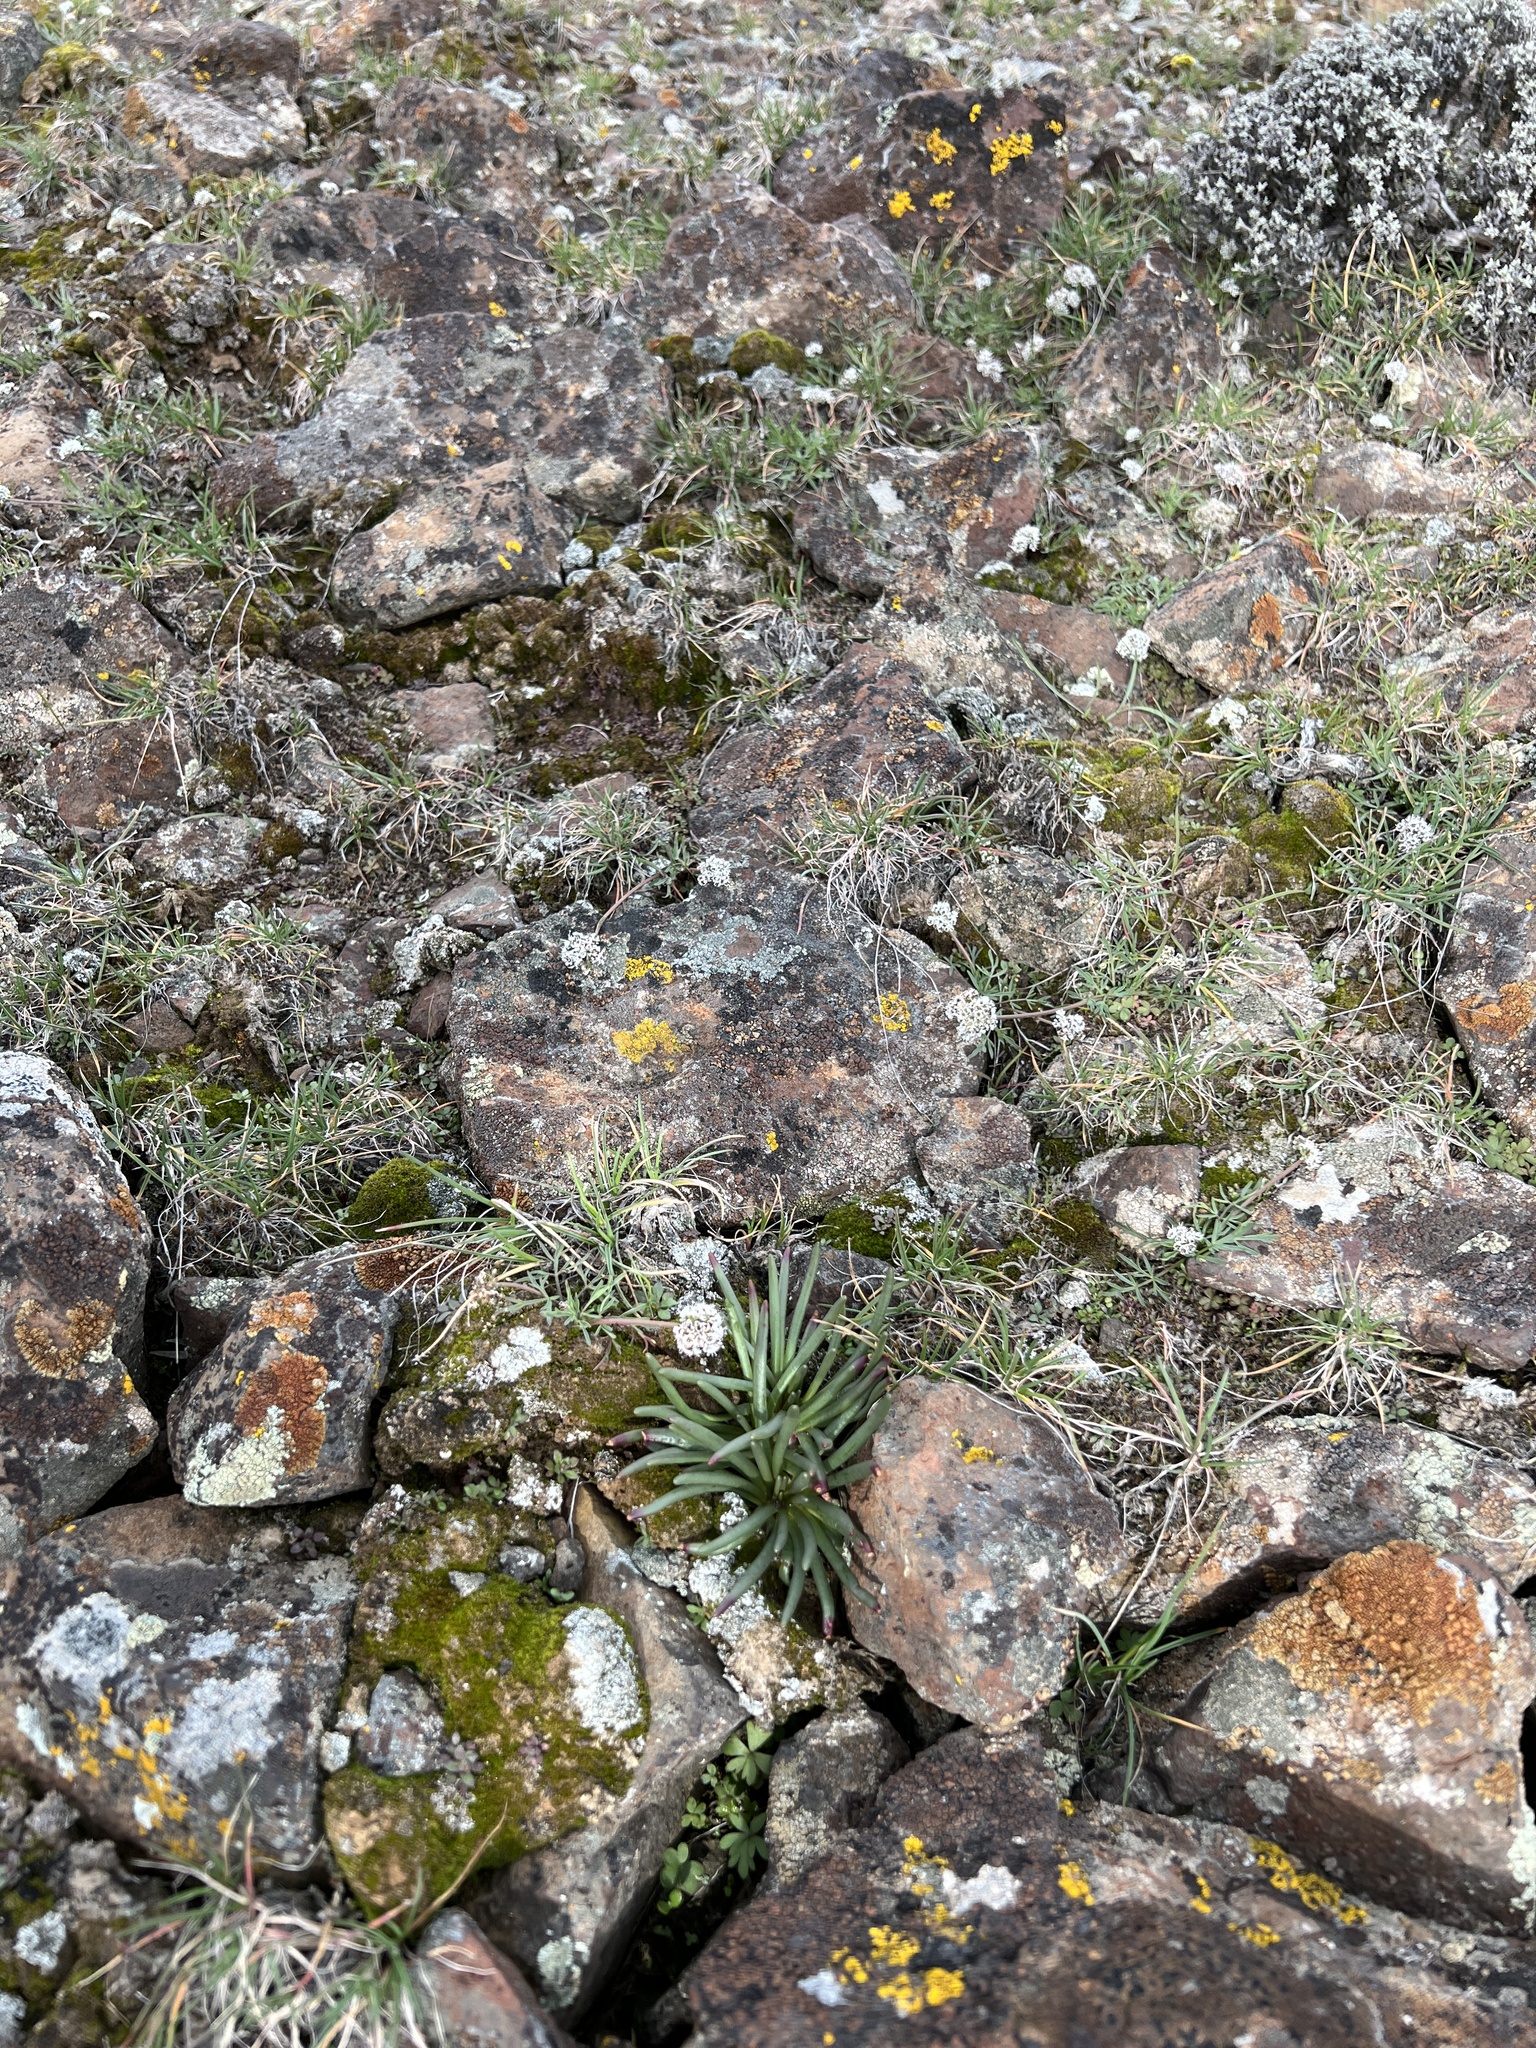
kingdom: Plantae
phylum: Tracheophyta
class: Magnoliopsida
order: Caryophyllales
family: Montiaceae
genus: Lewisia
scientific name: Lewisia rediviva
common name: Bitter-root
